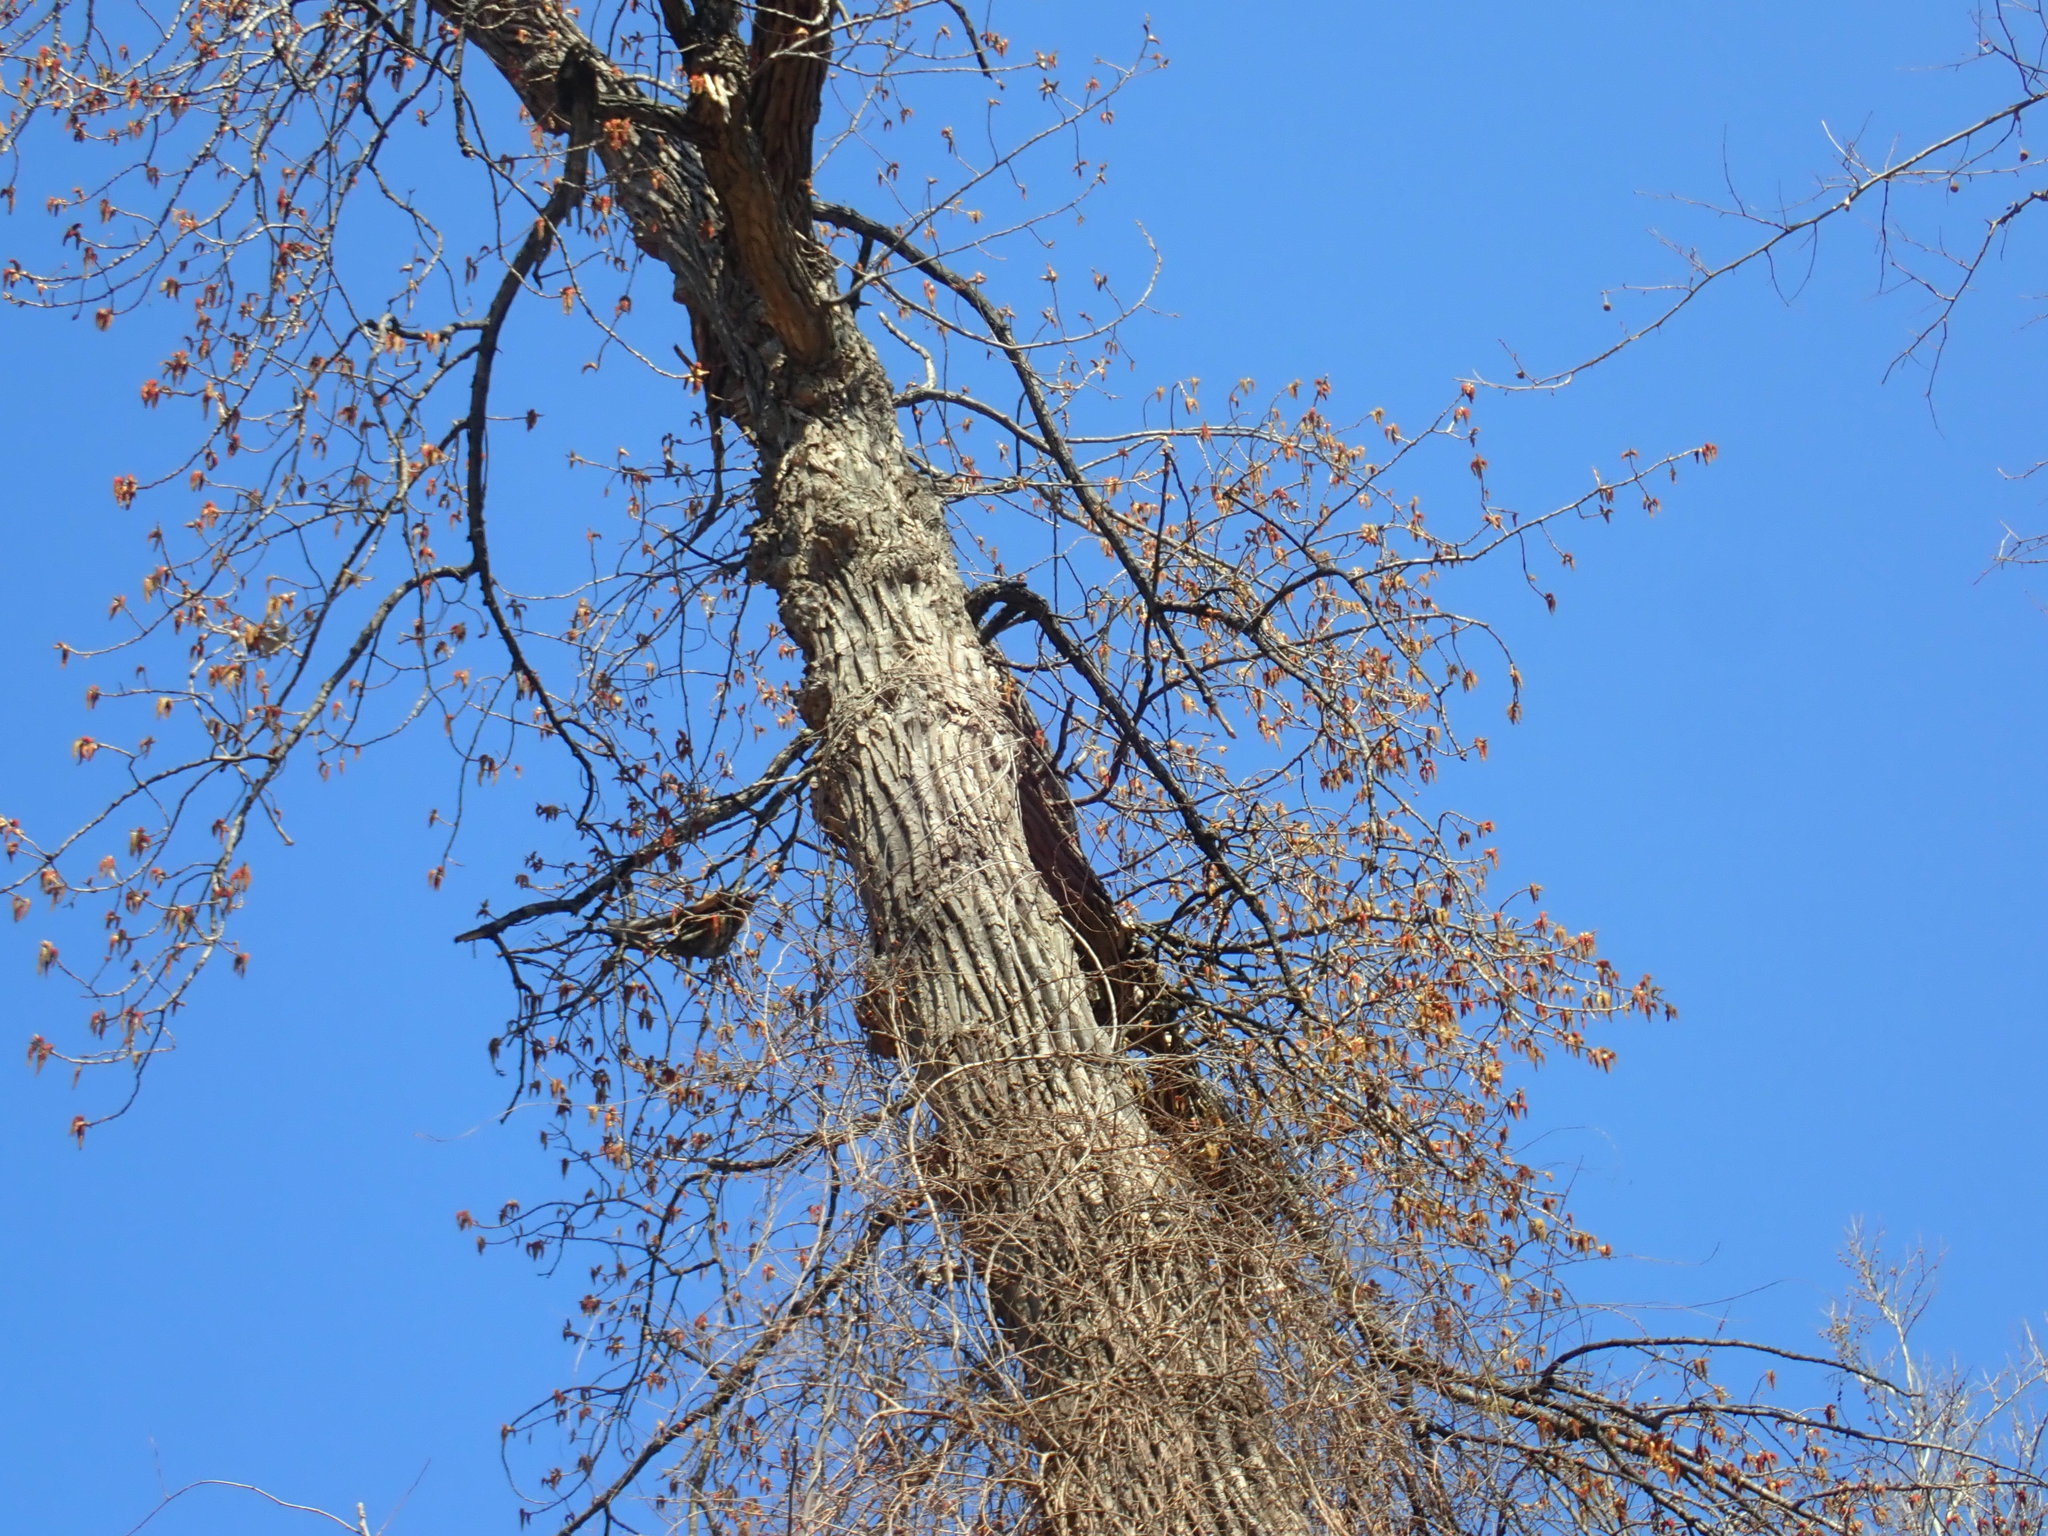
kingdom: Plantae
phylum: Tracheophyta
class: Magnoliopsida
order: Malpighiales
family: Salicaceae
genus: Populus
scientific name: Populus deltoides
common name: Eastern cottonwood
